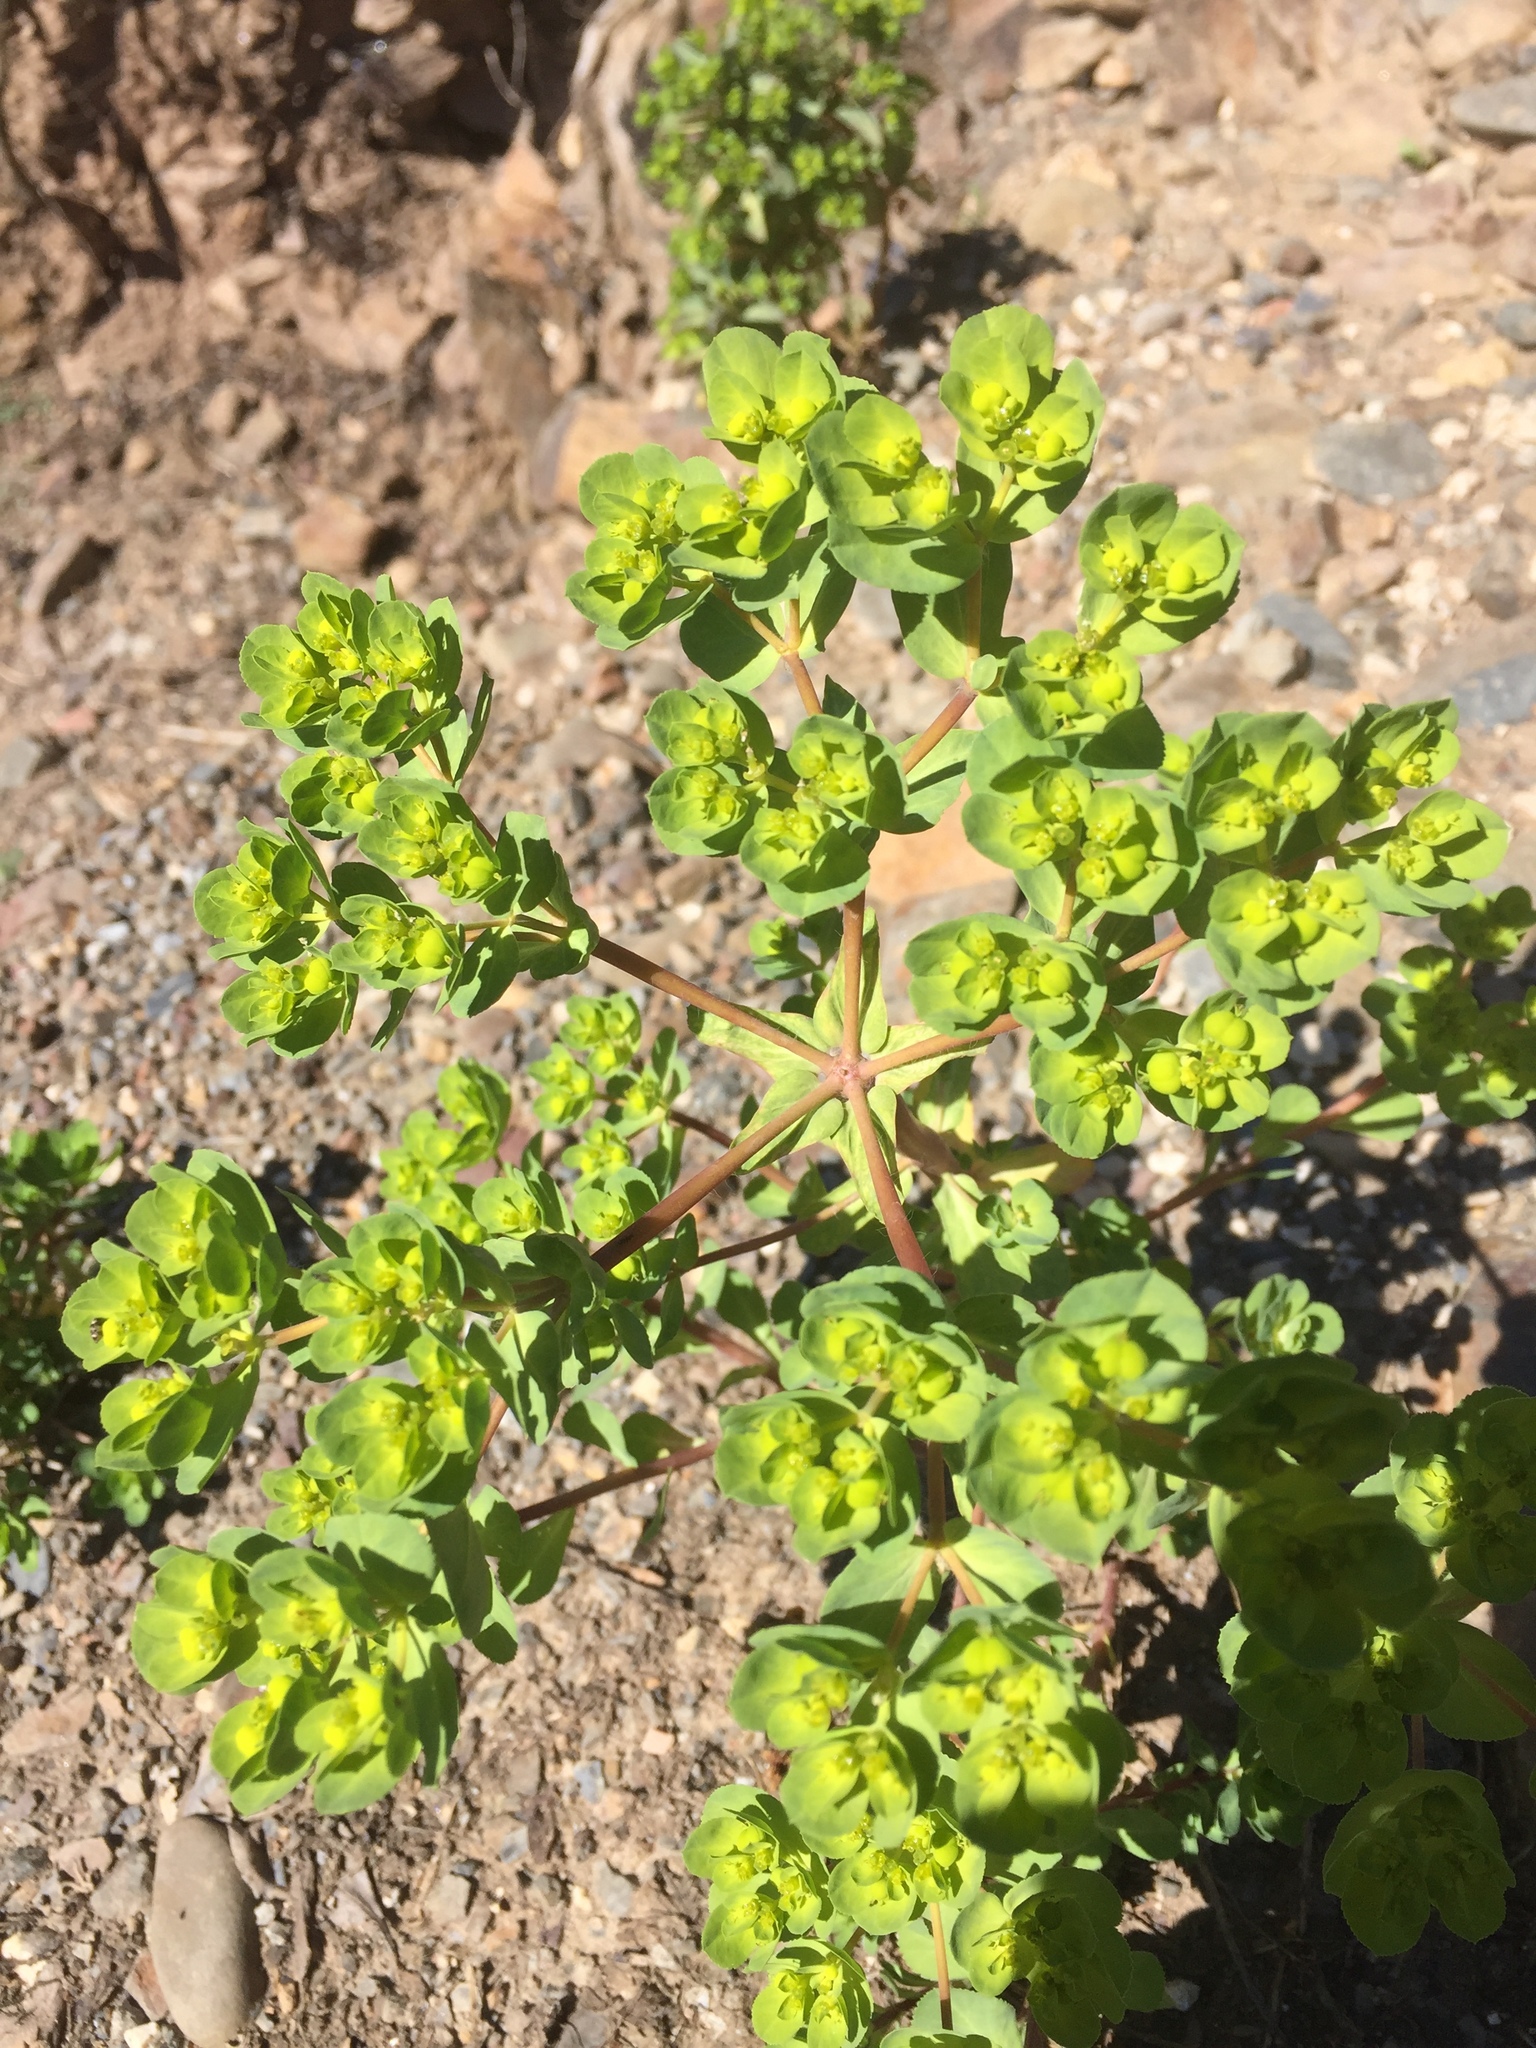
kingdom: Plantae
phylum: Tracheophyta
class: Magnoliopsida
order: Malpighiales
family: Euphorbiaceae
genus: Euphorbia
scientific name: Euphorbia helioscopia
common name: Sun spurge
